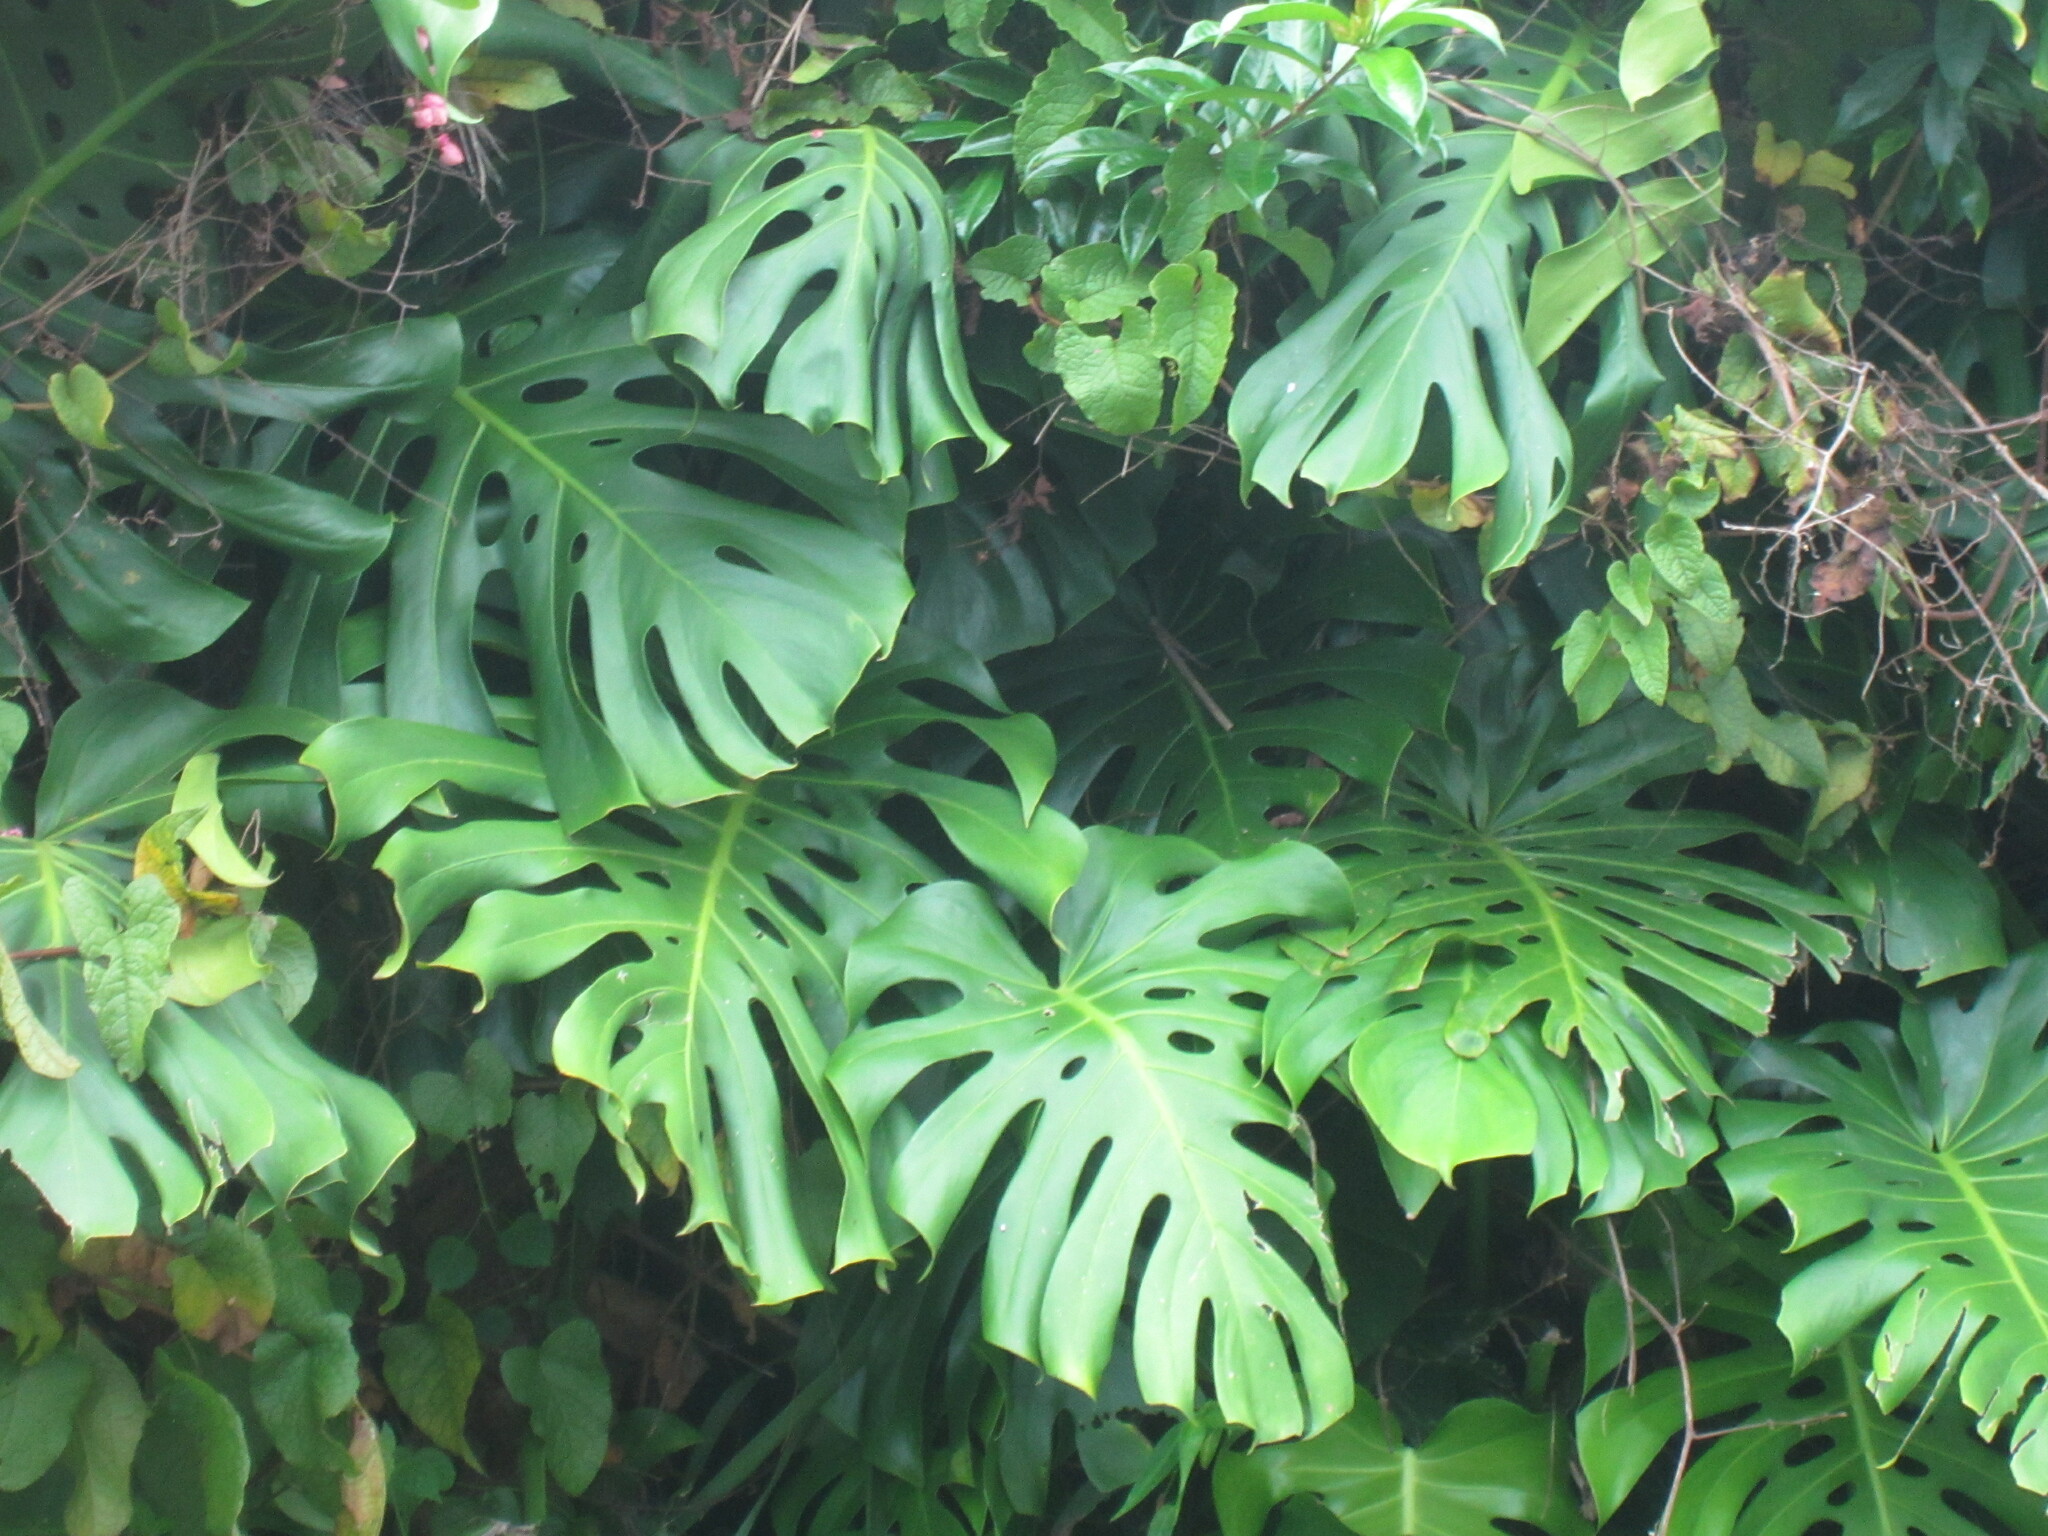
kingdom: Plantae
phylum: Tracheophyta
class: Liliopsida
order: Alismatales
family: Araceae
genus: Monstera
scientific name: Monstera deliciosa
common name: Cut-leaf-philodendron
